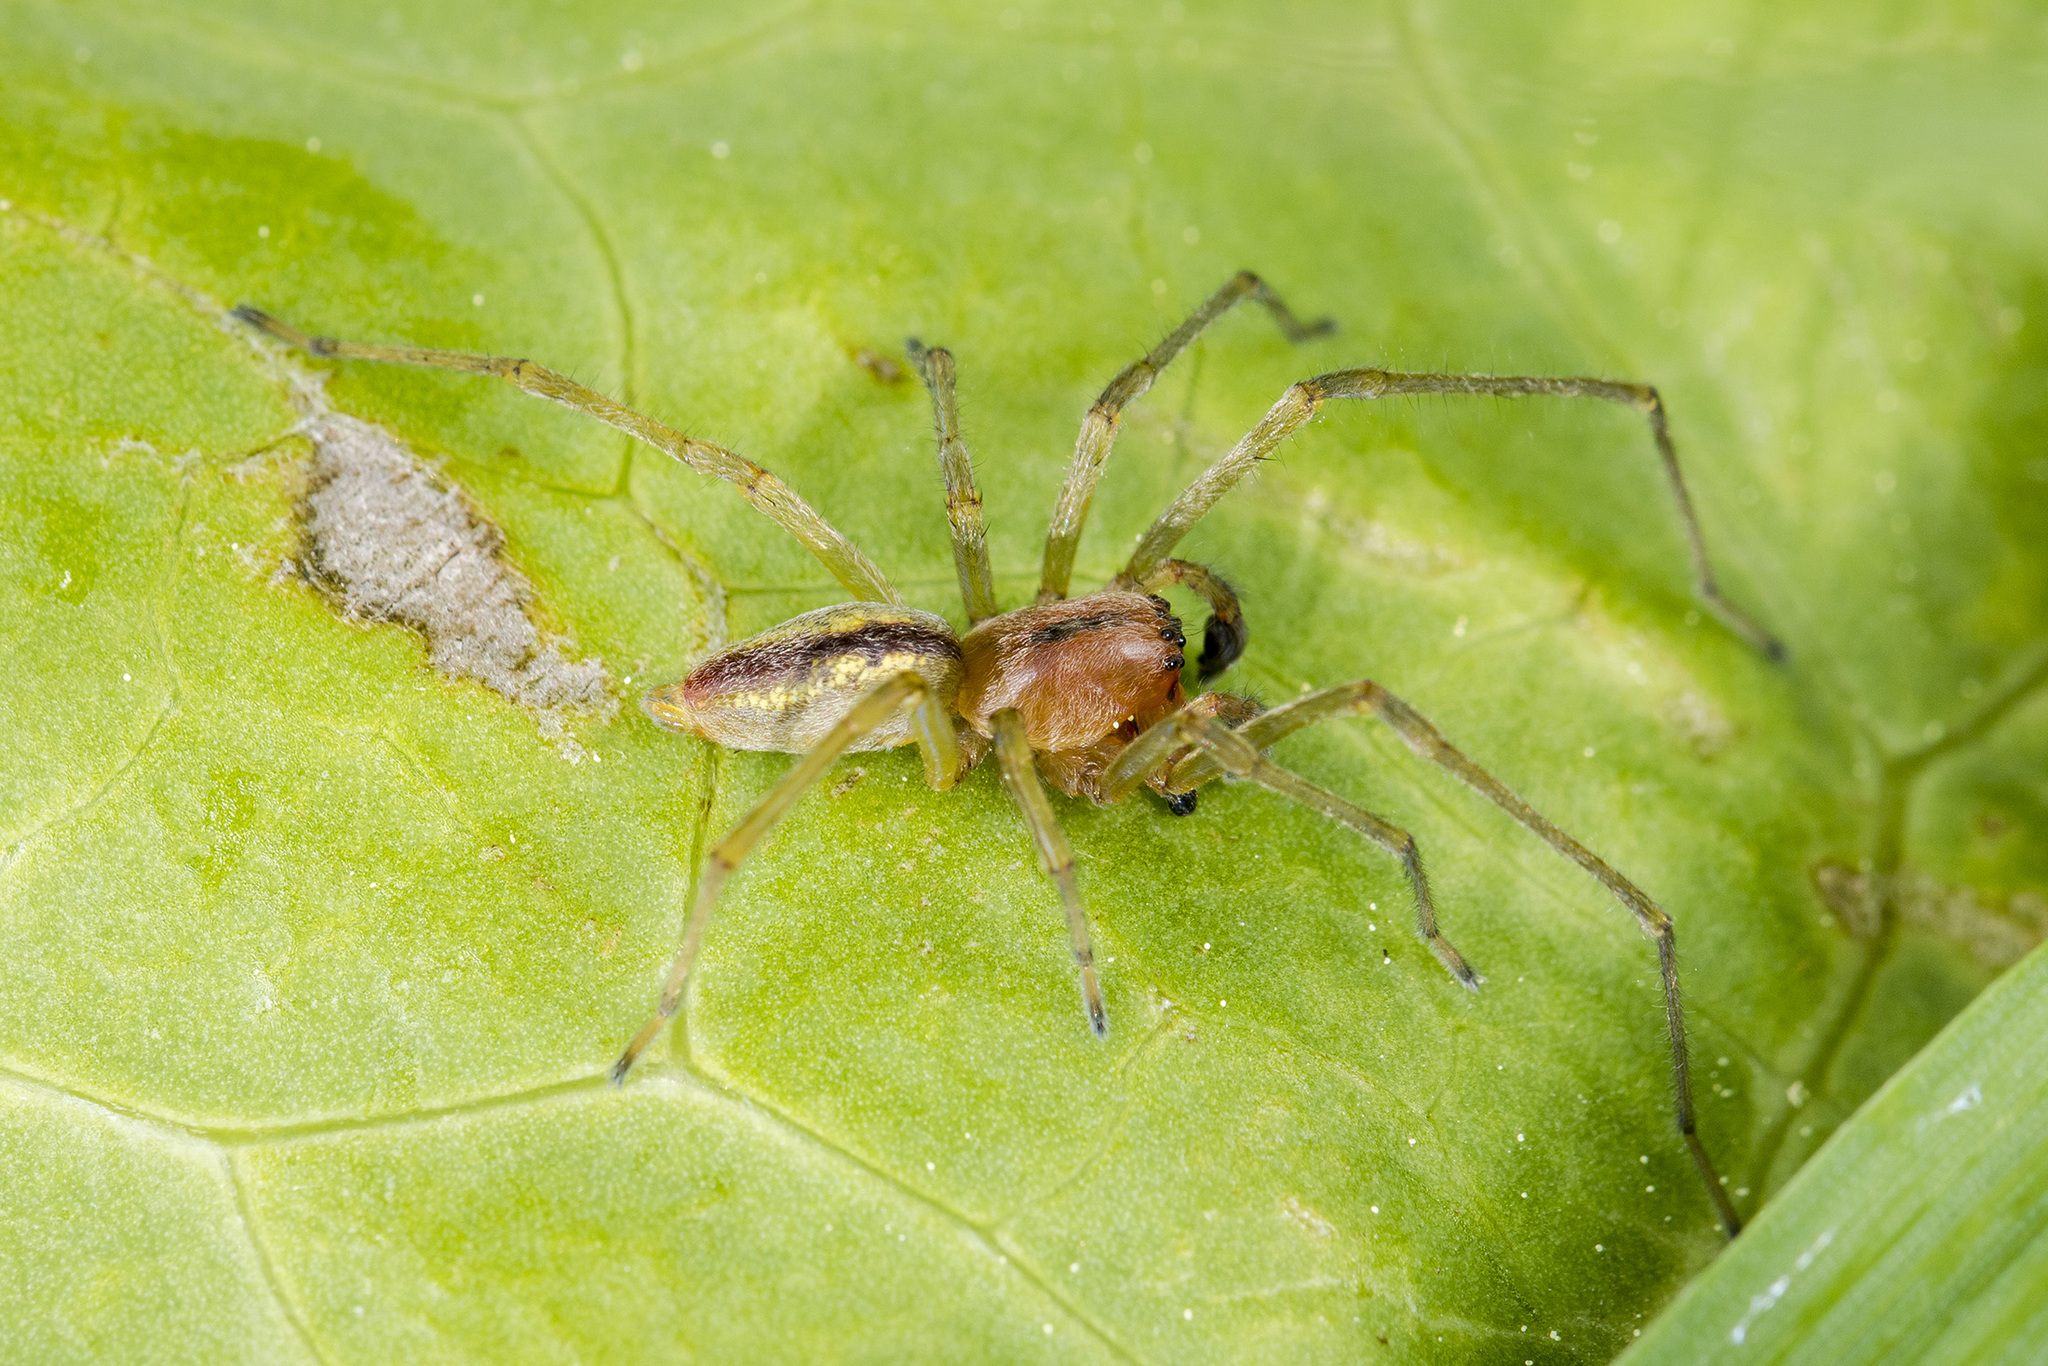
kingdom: Animalia
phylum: Arthropoda
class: Arachnida
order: Araneae
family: Cheiracanthiidae
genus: Cheiracanthium
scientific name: Cheiracanthium erraticum
